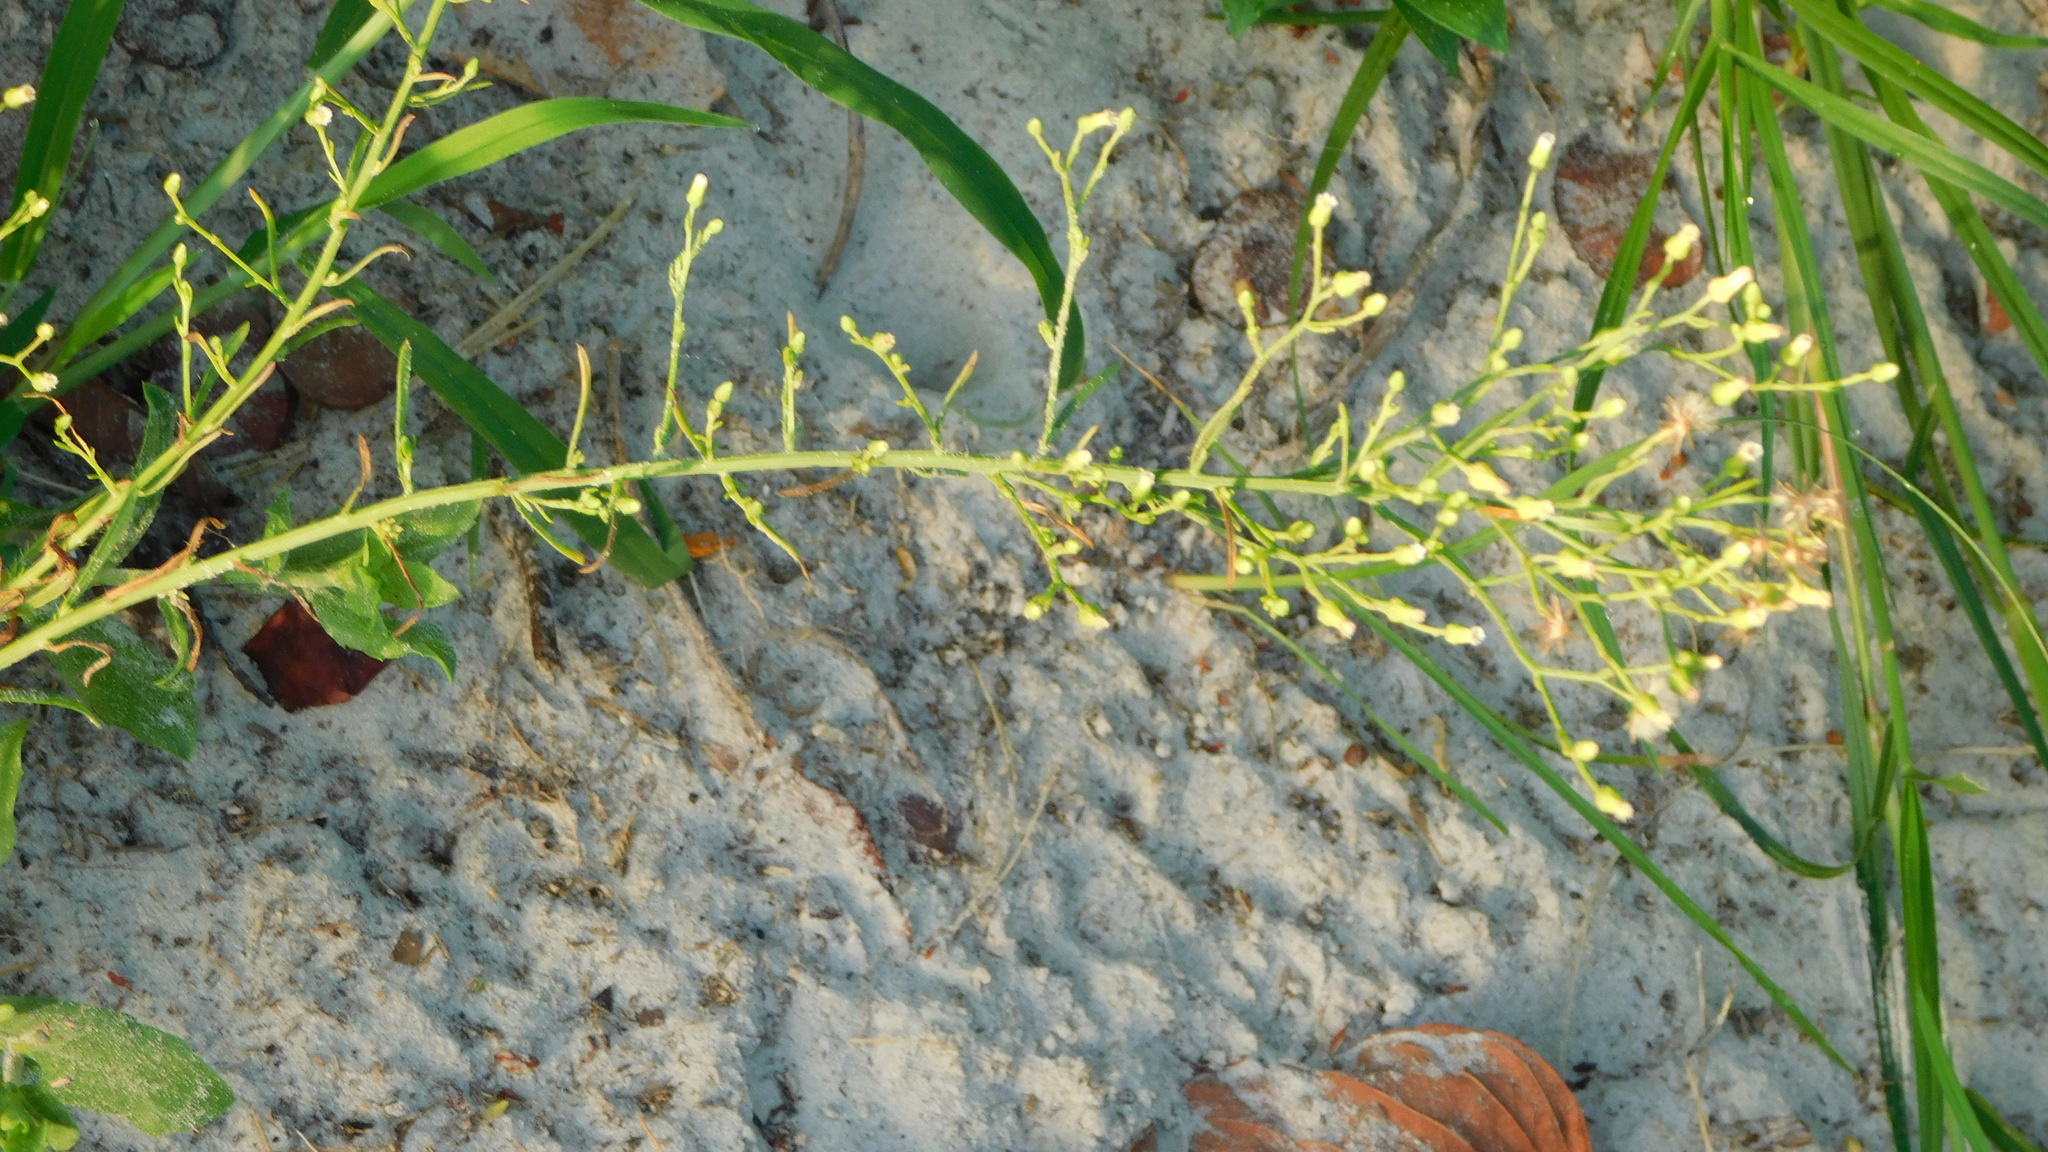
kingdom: Plantae
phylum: Tracheophyta
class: Magnoliopsida
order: Asterales
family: Asteraceae
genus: Erigeron
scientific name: Erigeron canadensis
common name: Canadian fleabane
